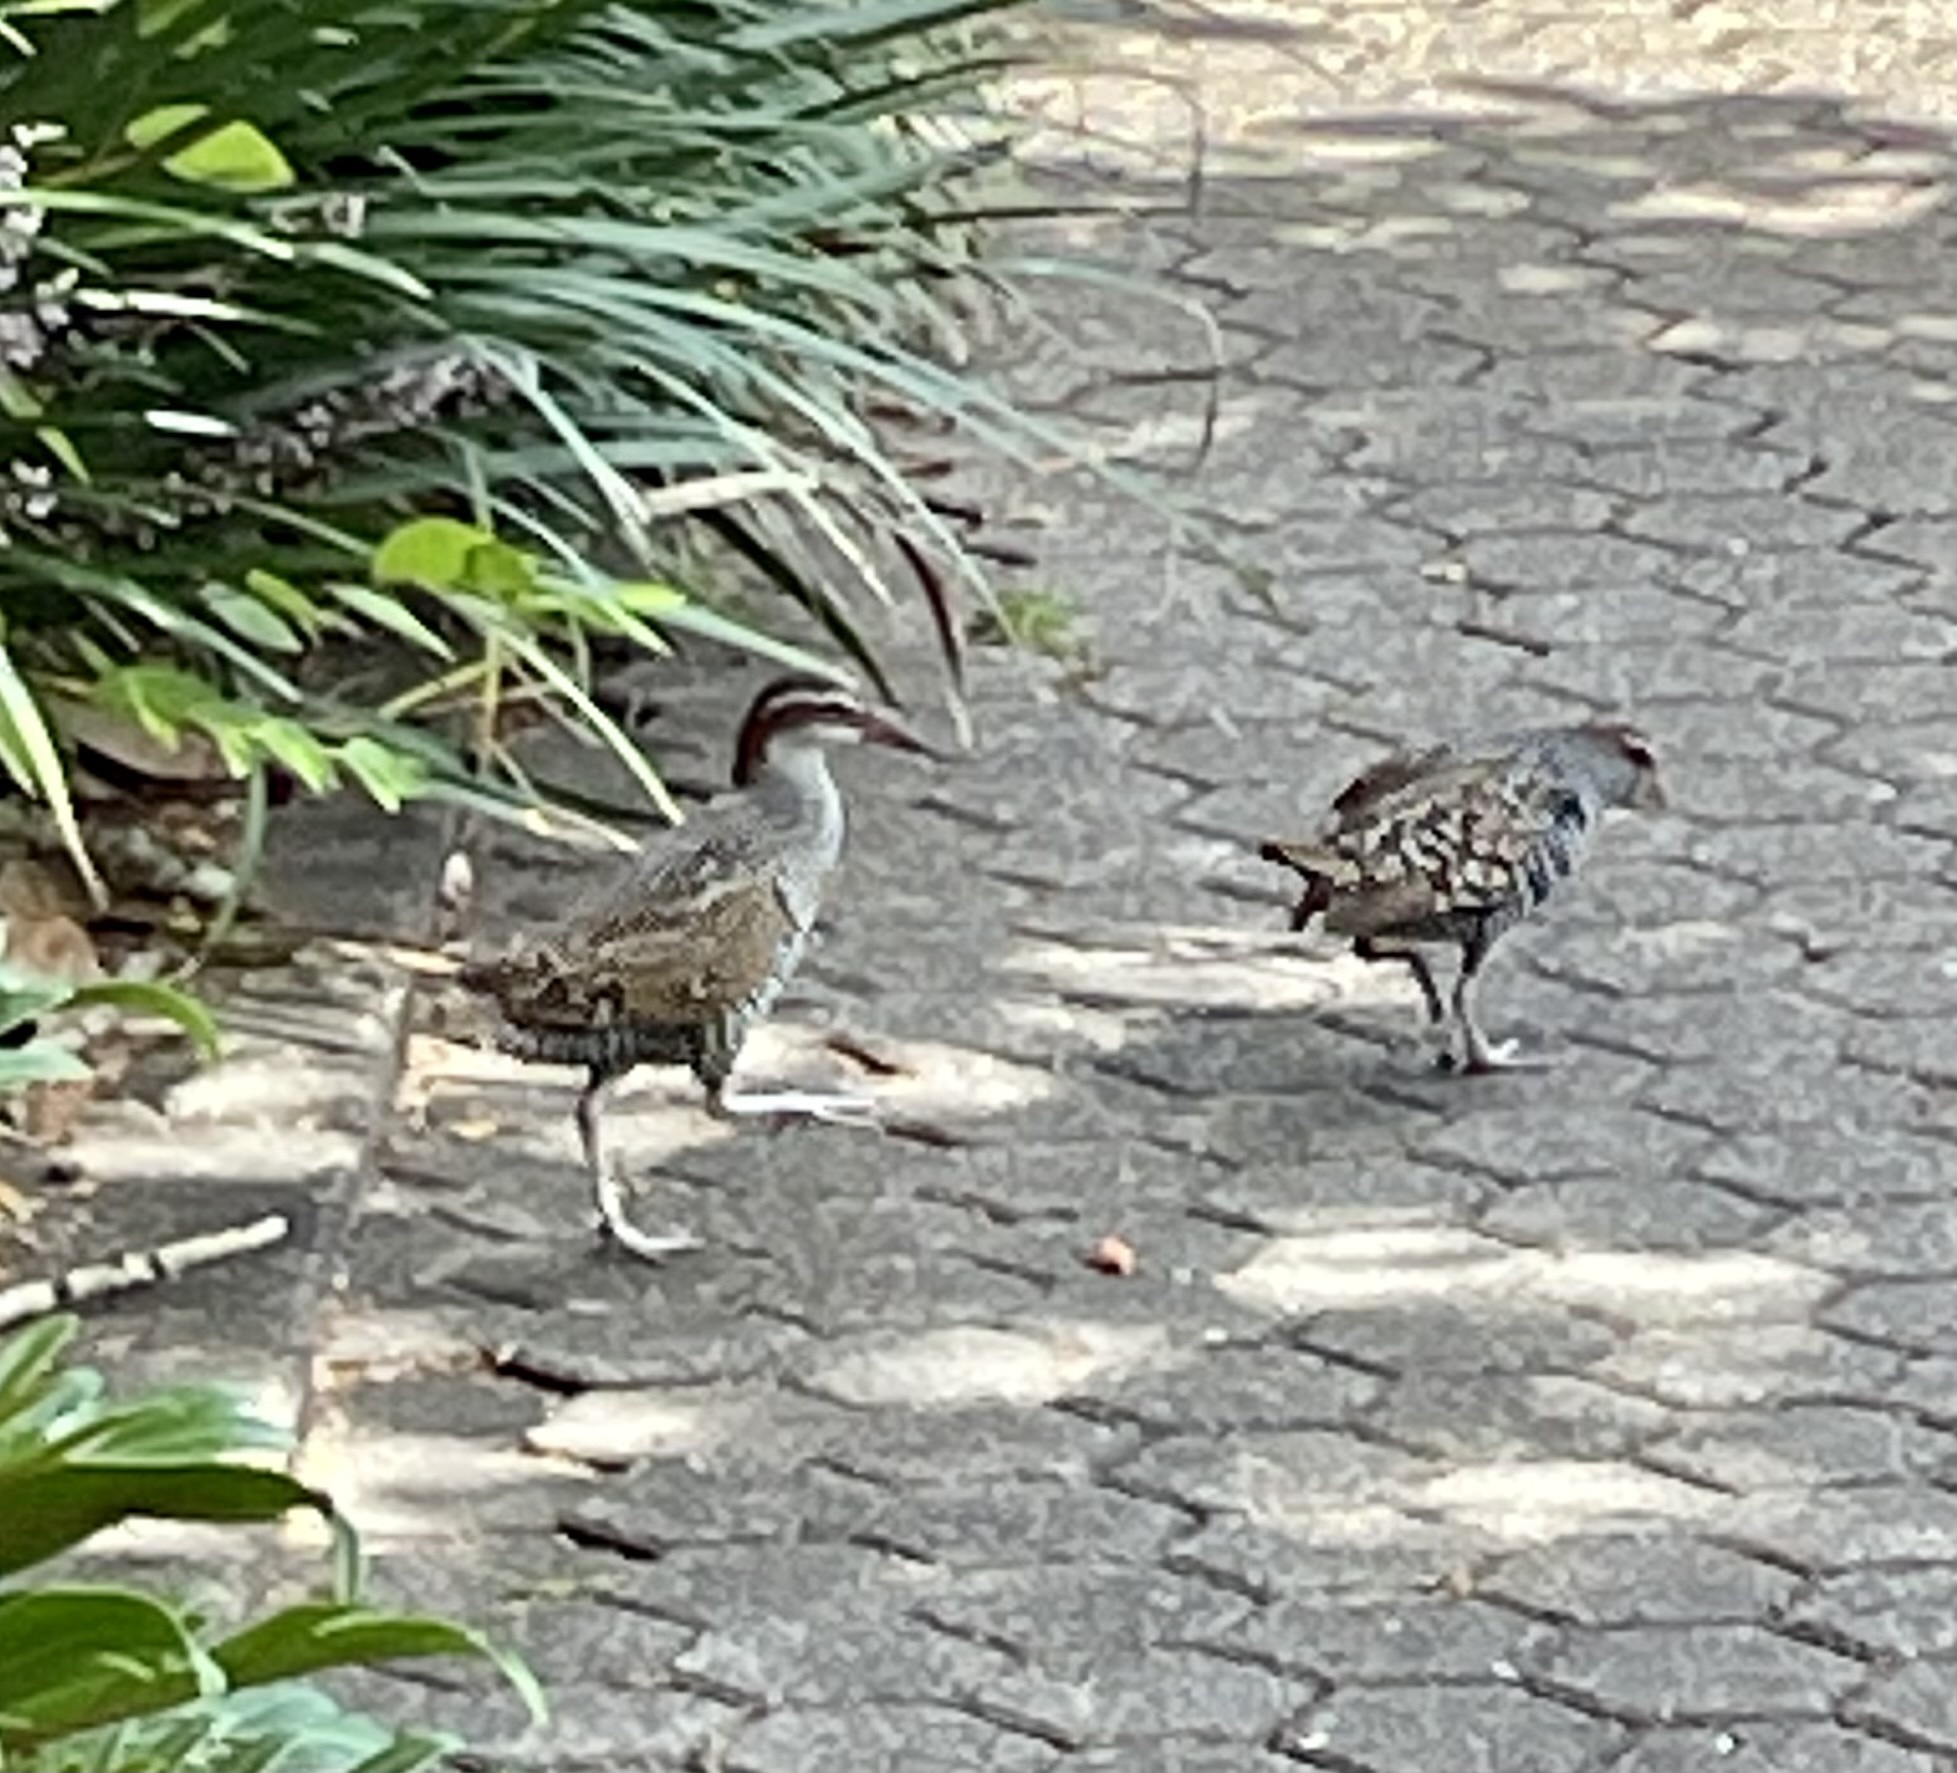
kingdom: Animalia
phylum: Chordata
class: Aves
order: Gruiformes
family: Rallidae
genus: Gallirallus
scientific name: Gallirallus philippensis
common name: Buff-banded rail
